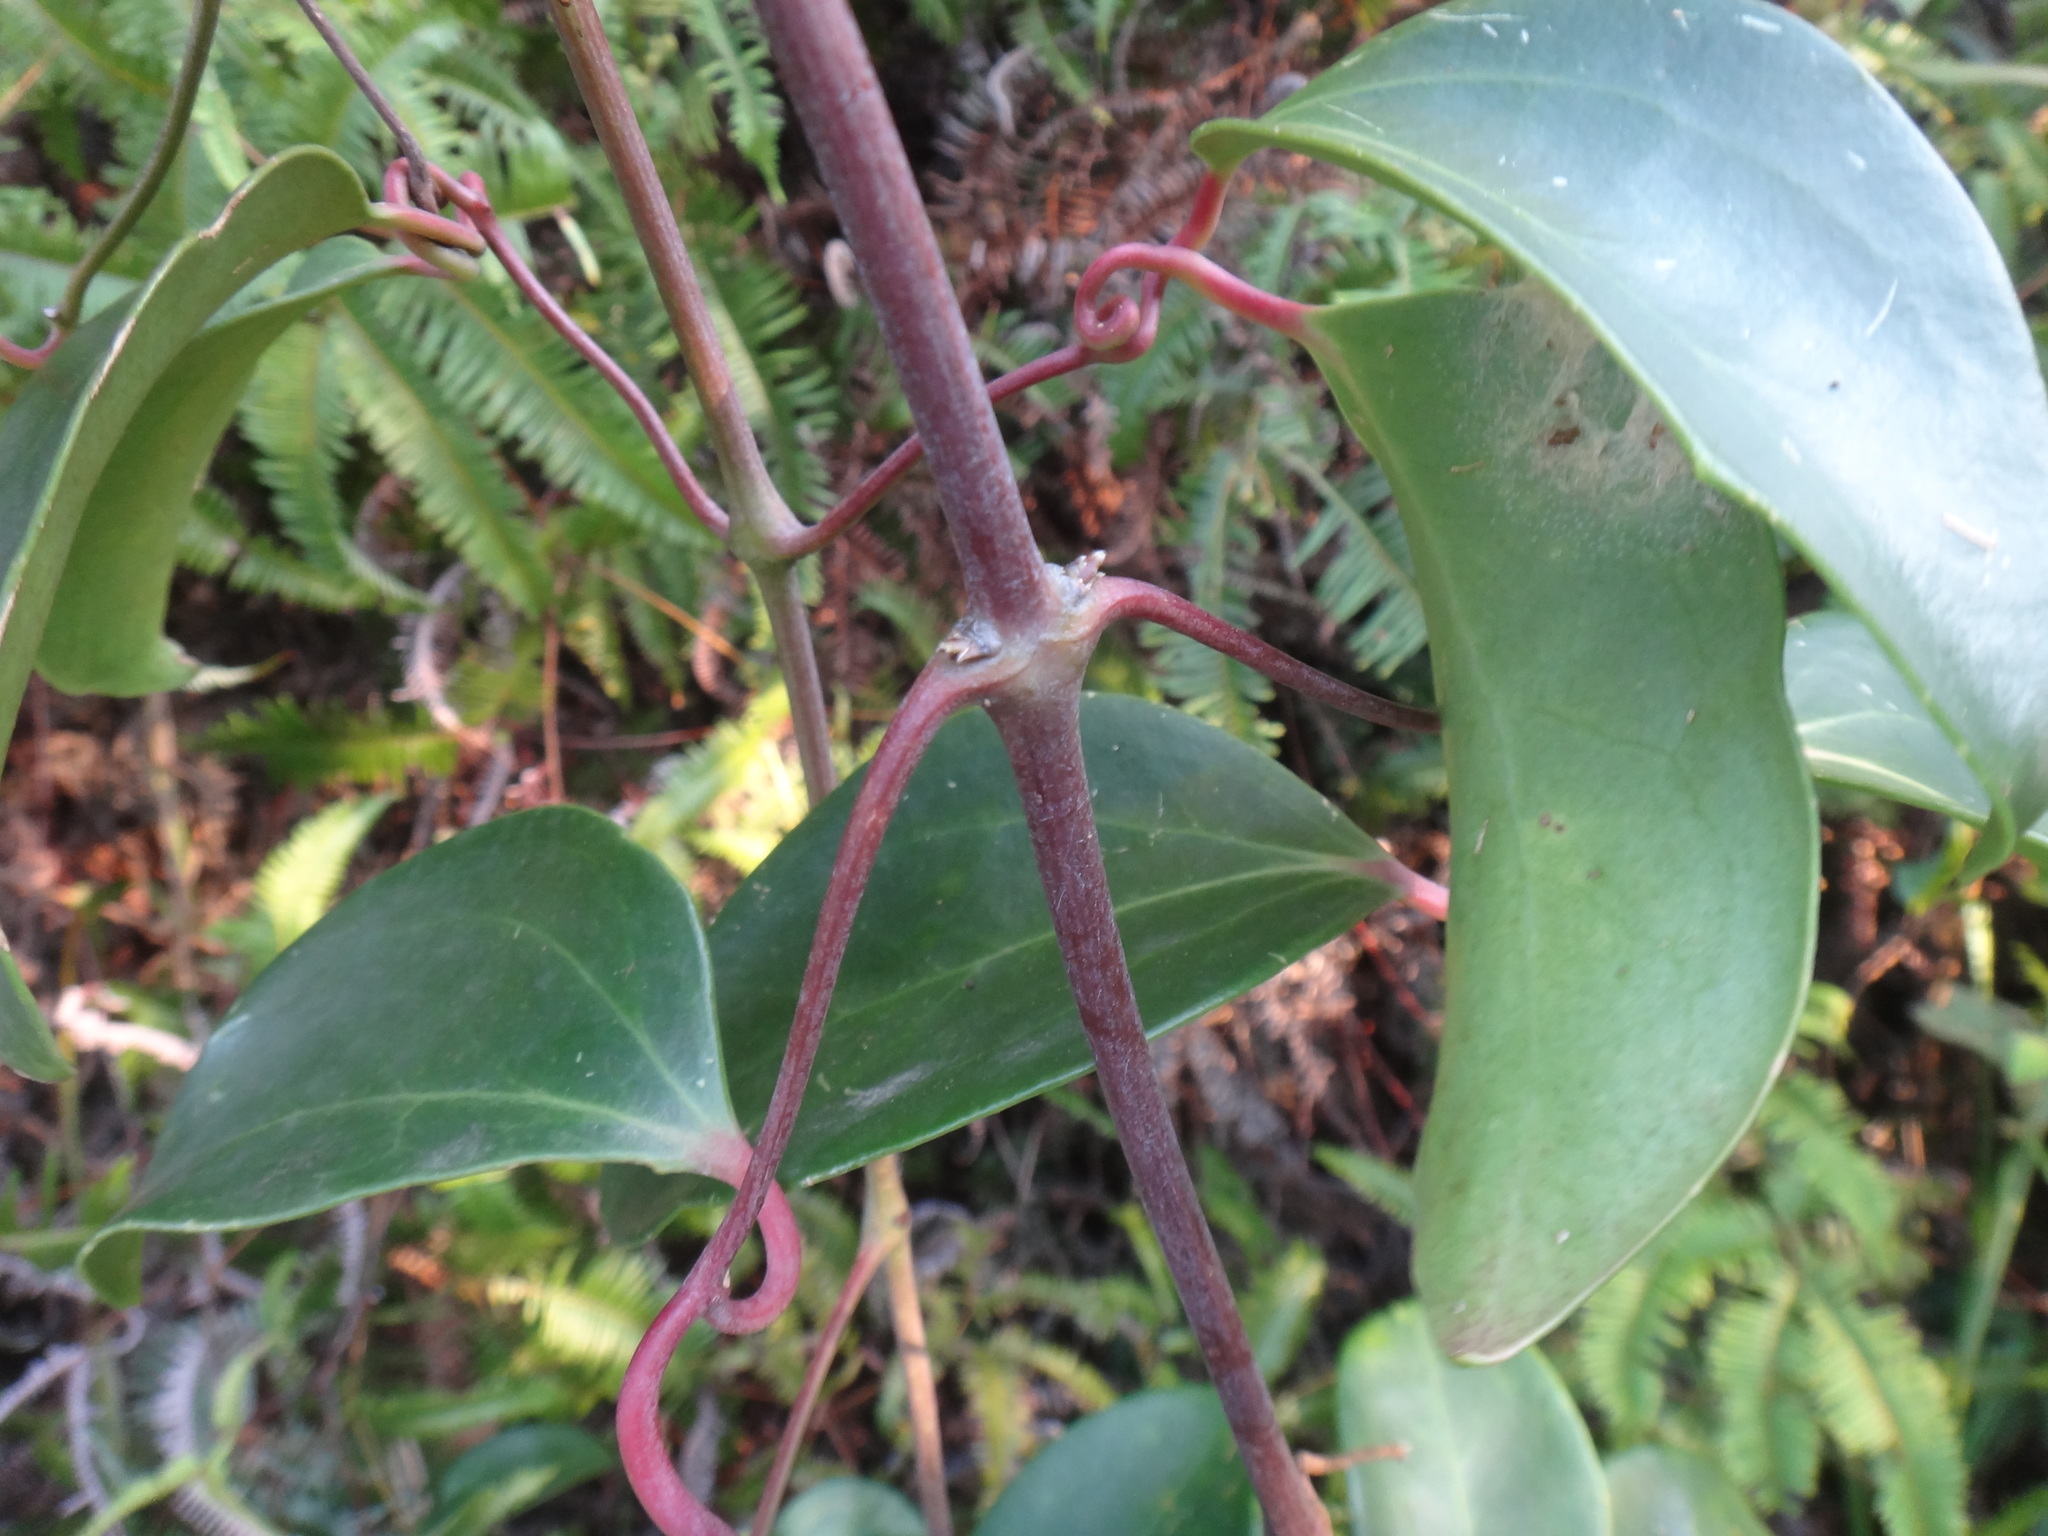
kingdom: Plantae
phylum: Tracheophyta
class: Magnoliopsida
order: Ranunculales
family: Ranunculaceae
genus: Clematis
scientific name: Clematis crassifolia
